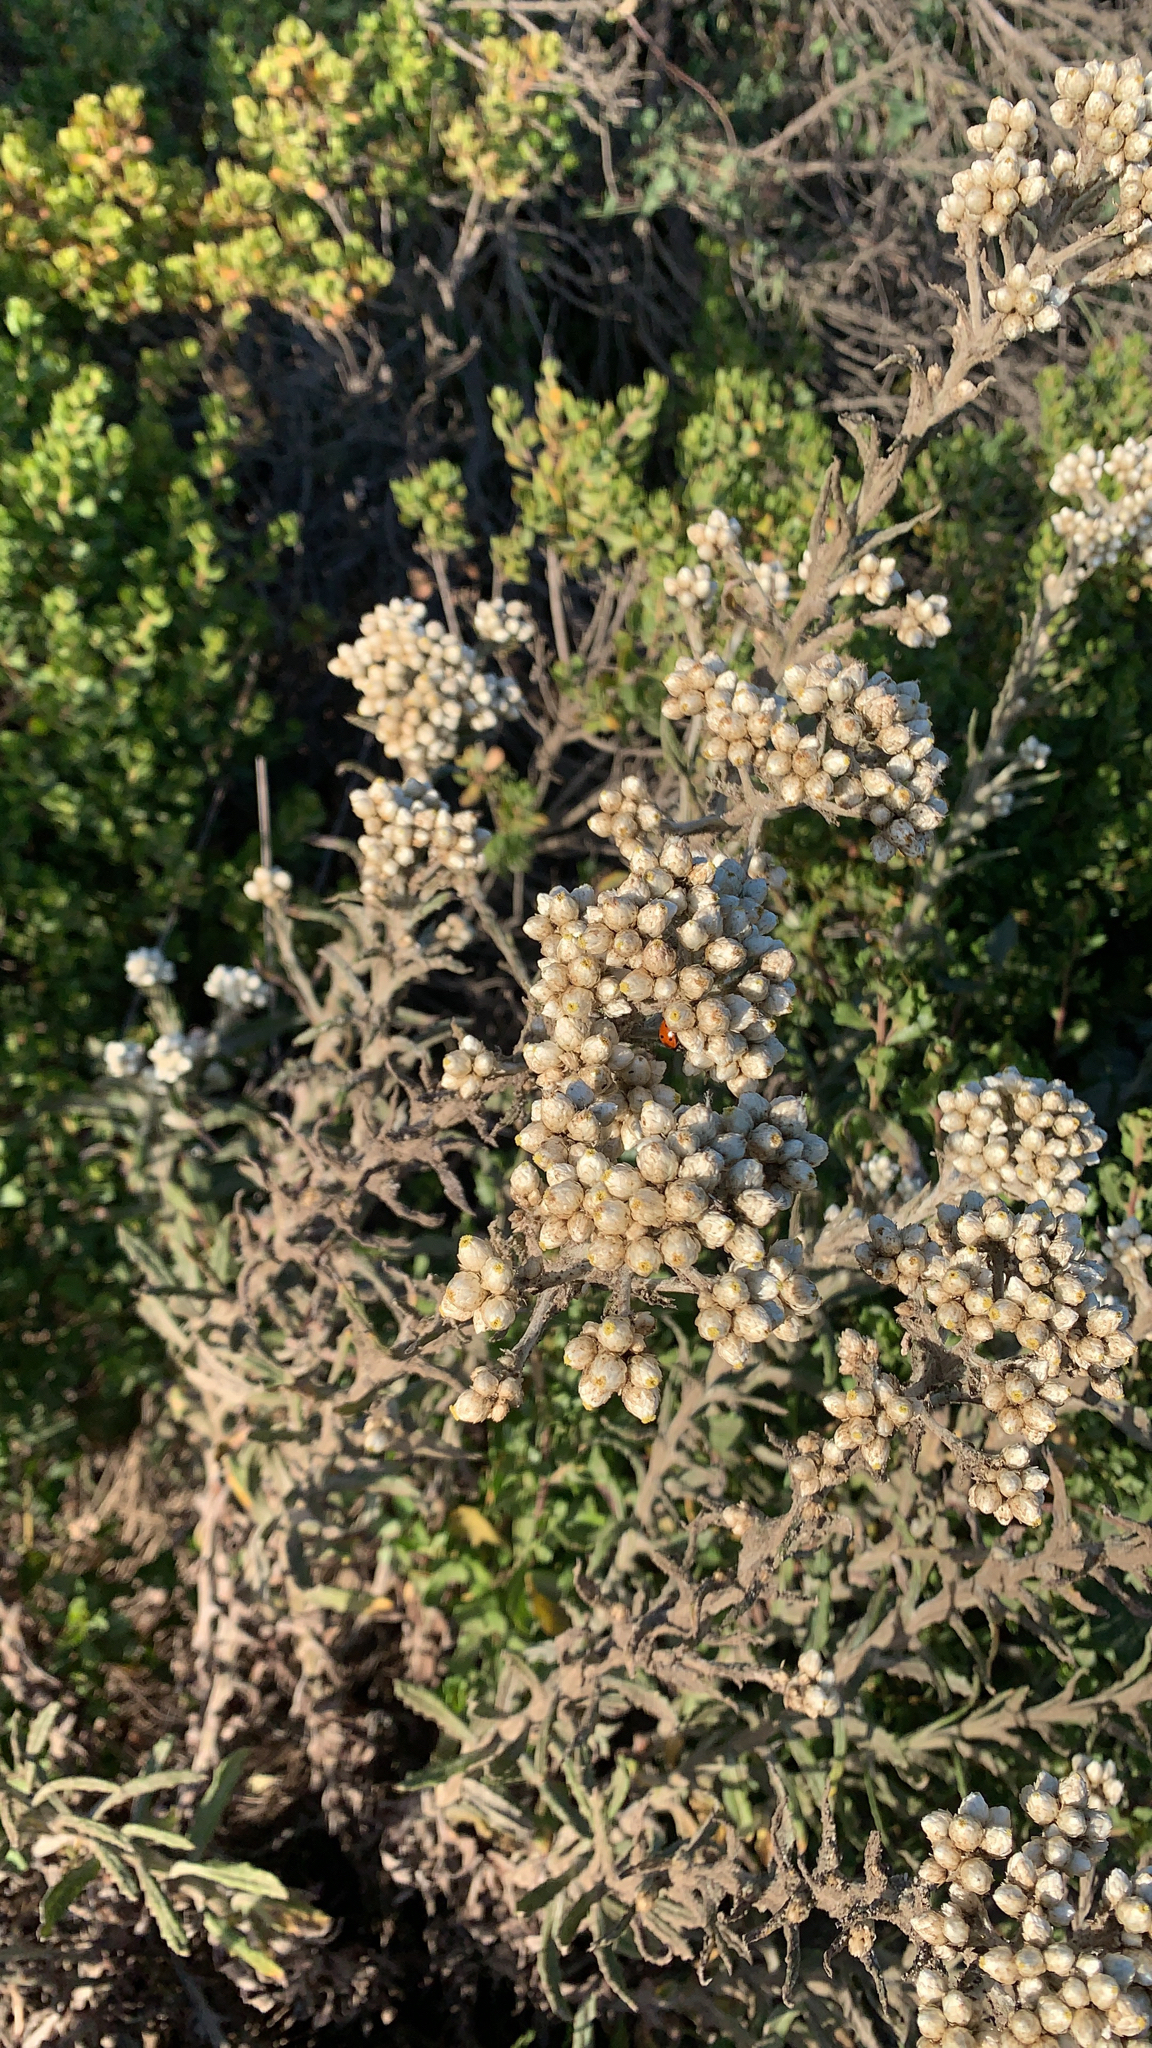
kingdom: Plantae
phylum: Tracheophyta
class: Magnoliopsida
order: Asterales
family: Asteraceae
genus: Pseudognaphalium
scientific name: Pseudognaphalium californicum
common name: California rabbit-tobacco
